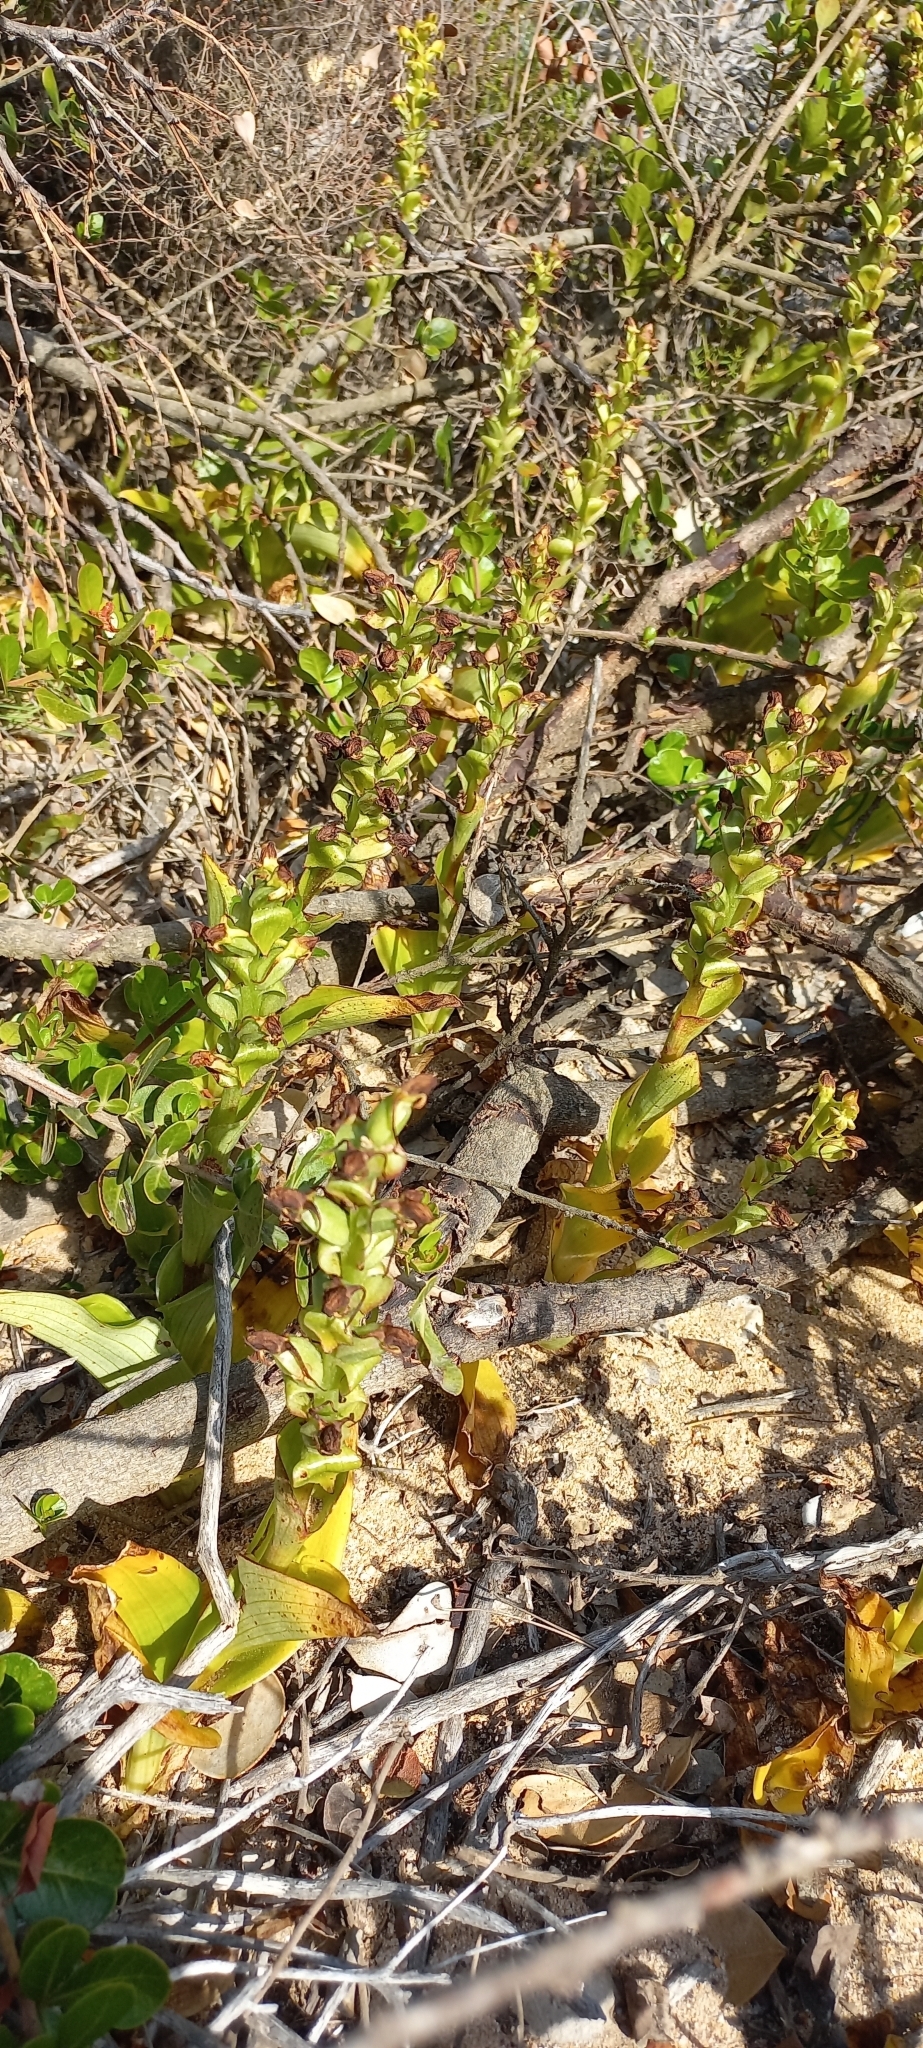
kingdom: Plantae
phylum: Tracheophyta
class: Liliopsida
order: Asparagales
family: Orchidaceae
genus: Satyrium
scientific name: Satyrium odorum
